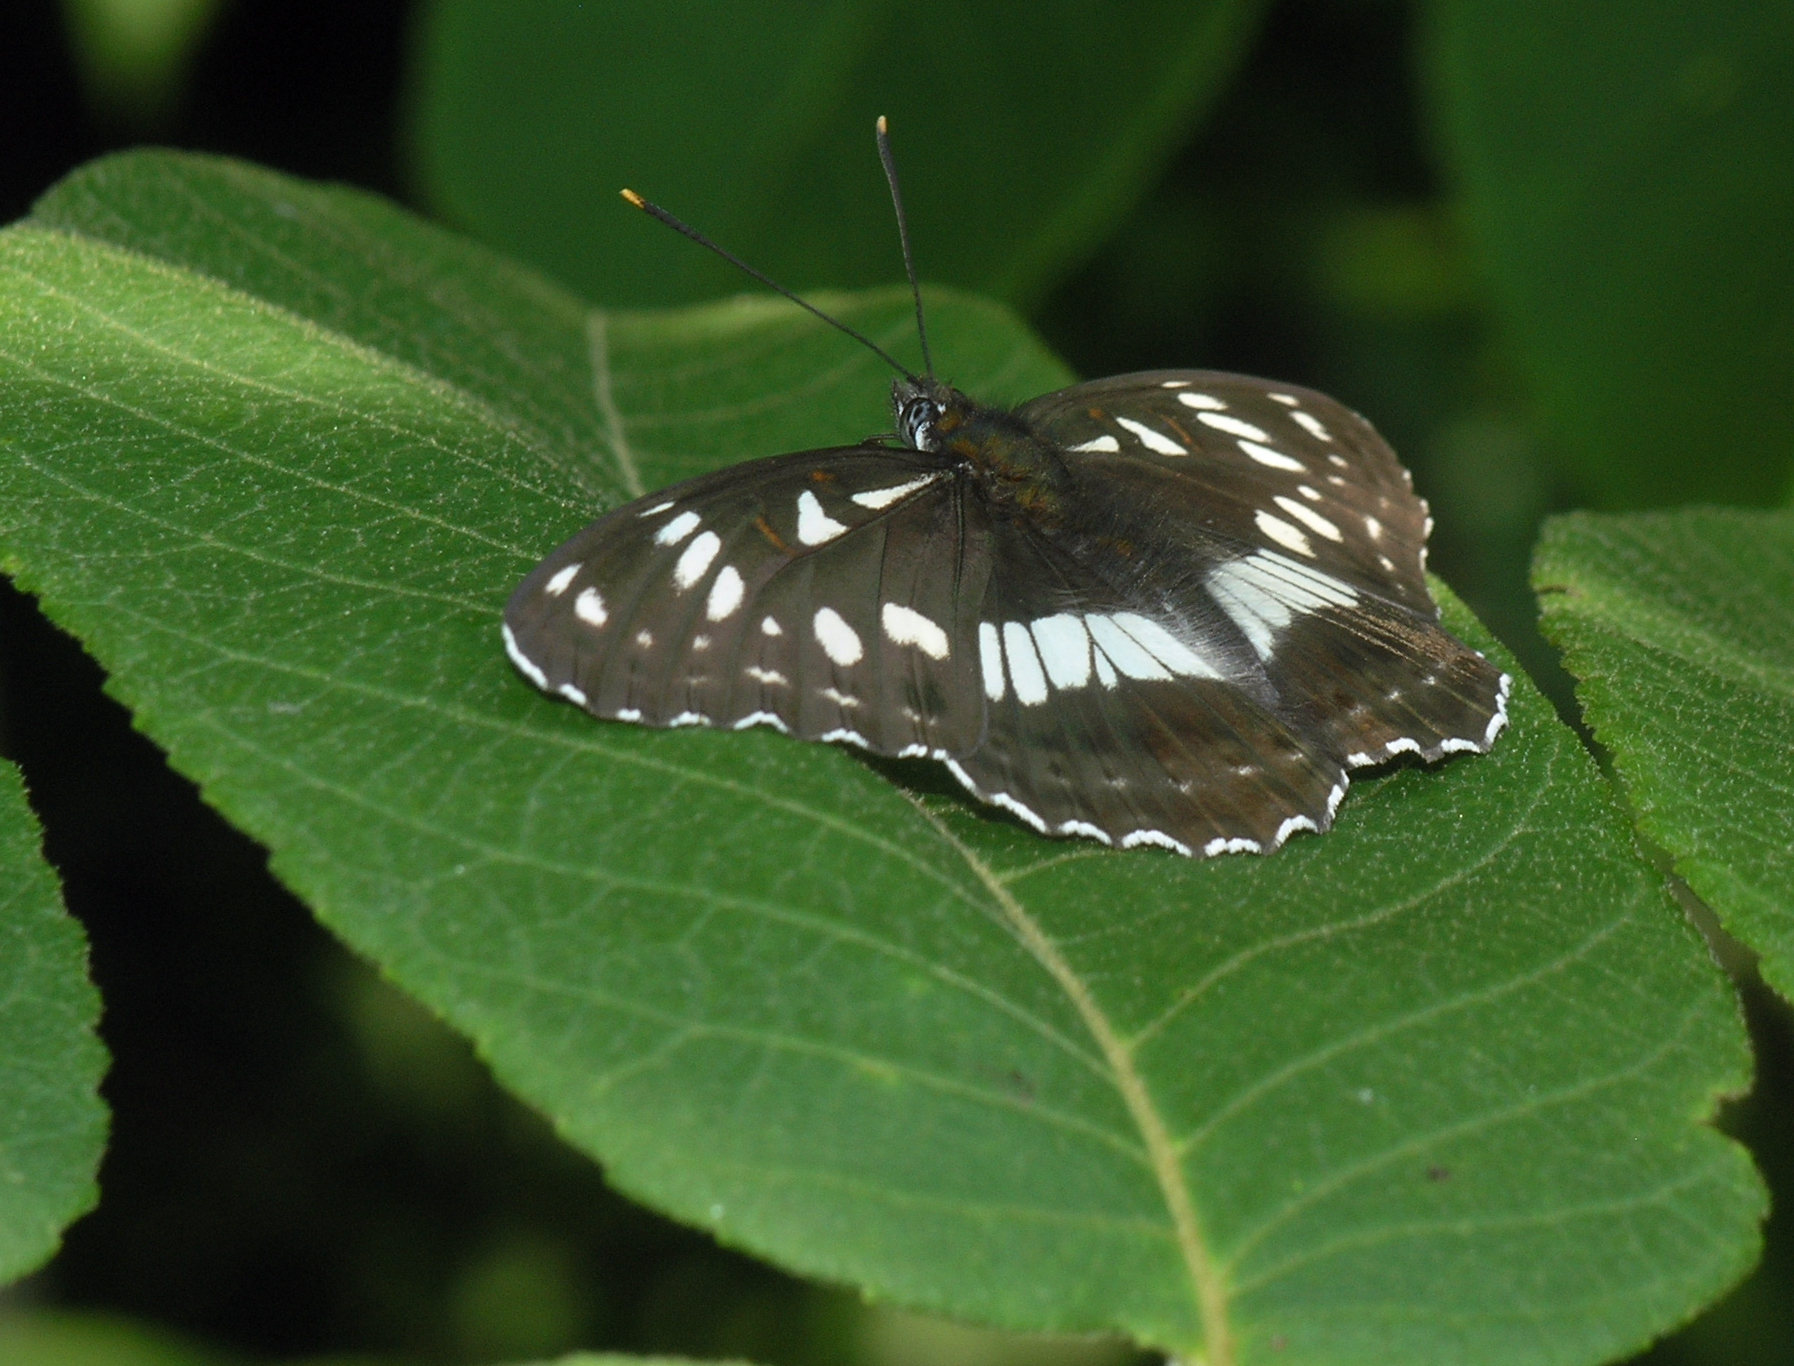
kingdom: Animalia
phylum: Arthropoda
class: Insecta
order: Lepidoptera
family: Nymphalidae
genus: Limenitis
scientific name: Limenitis doerriesi
